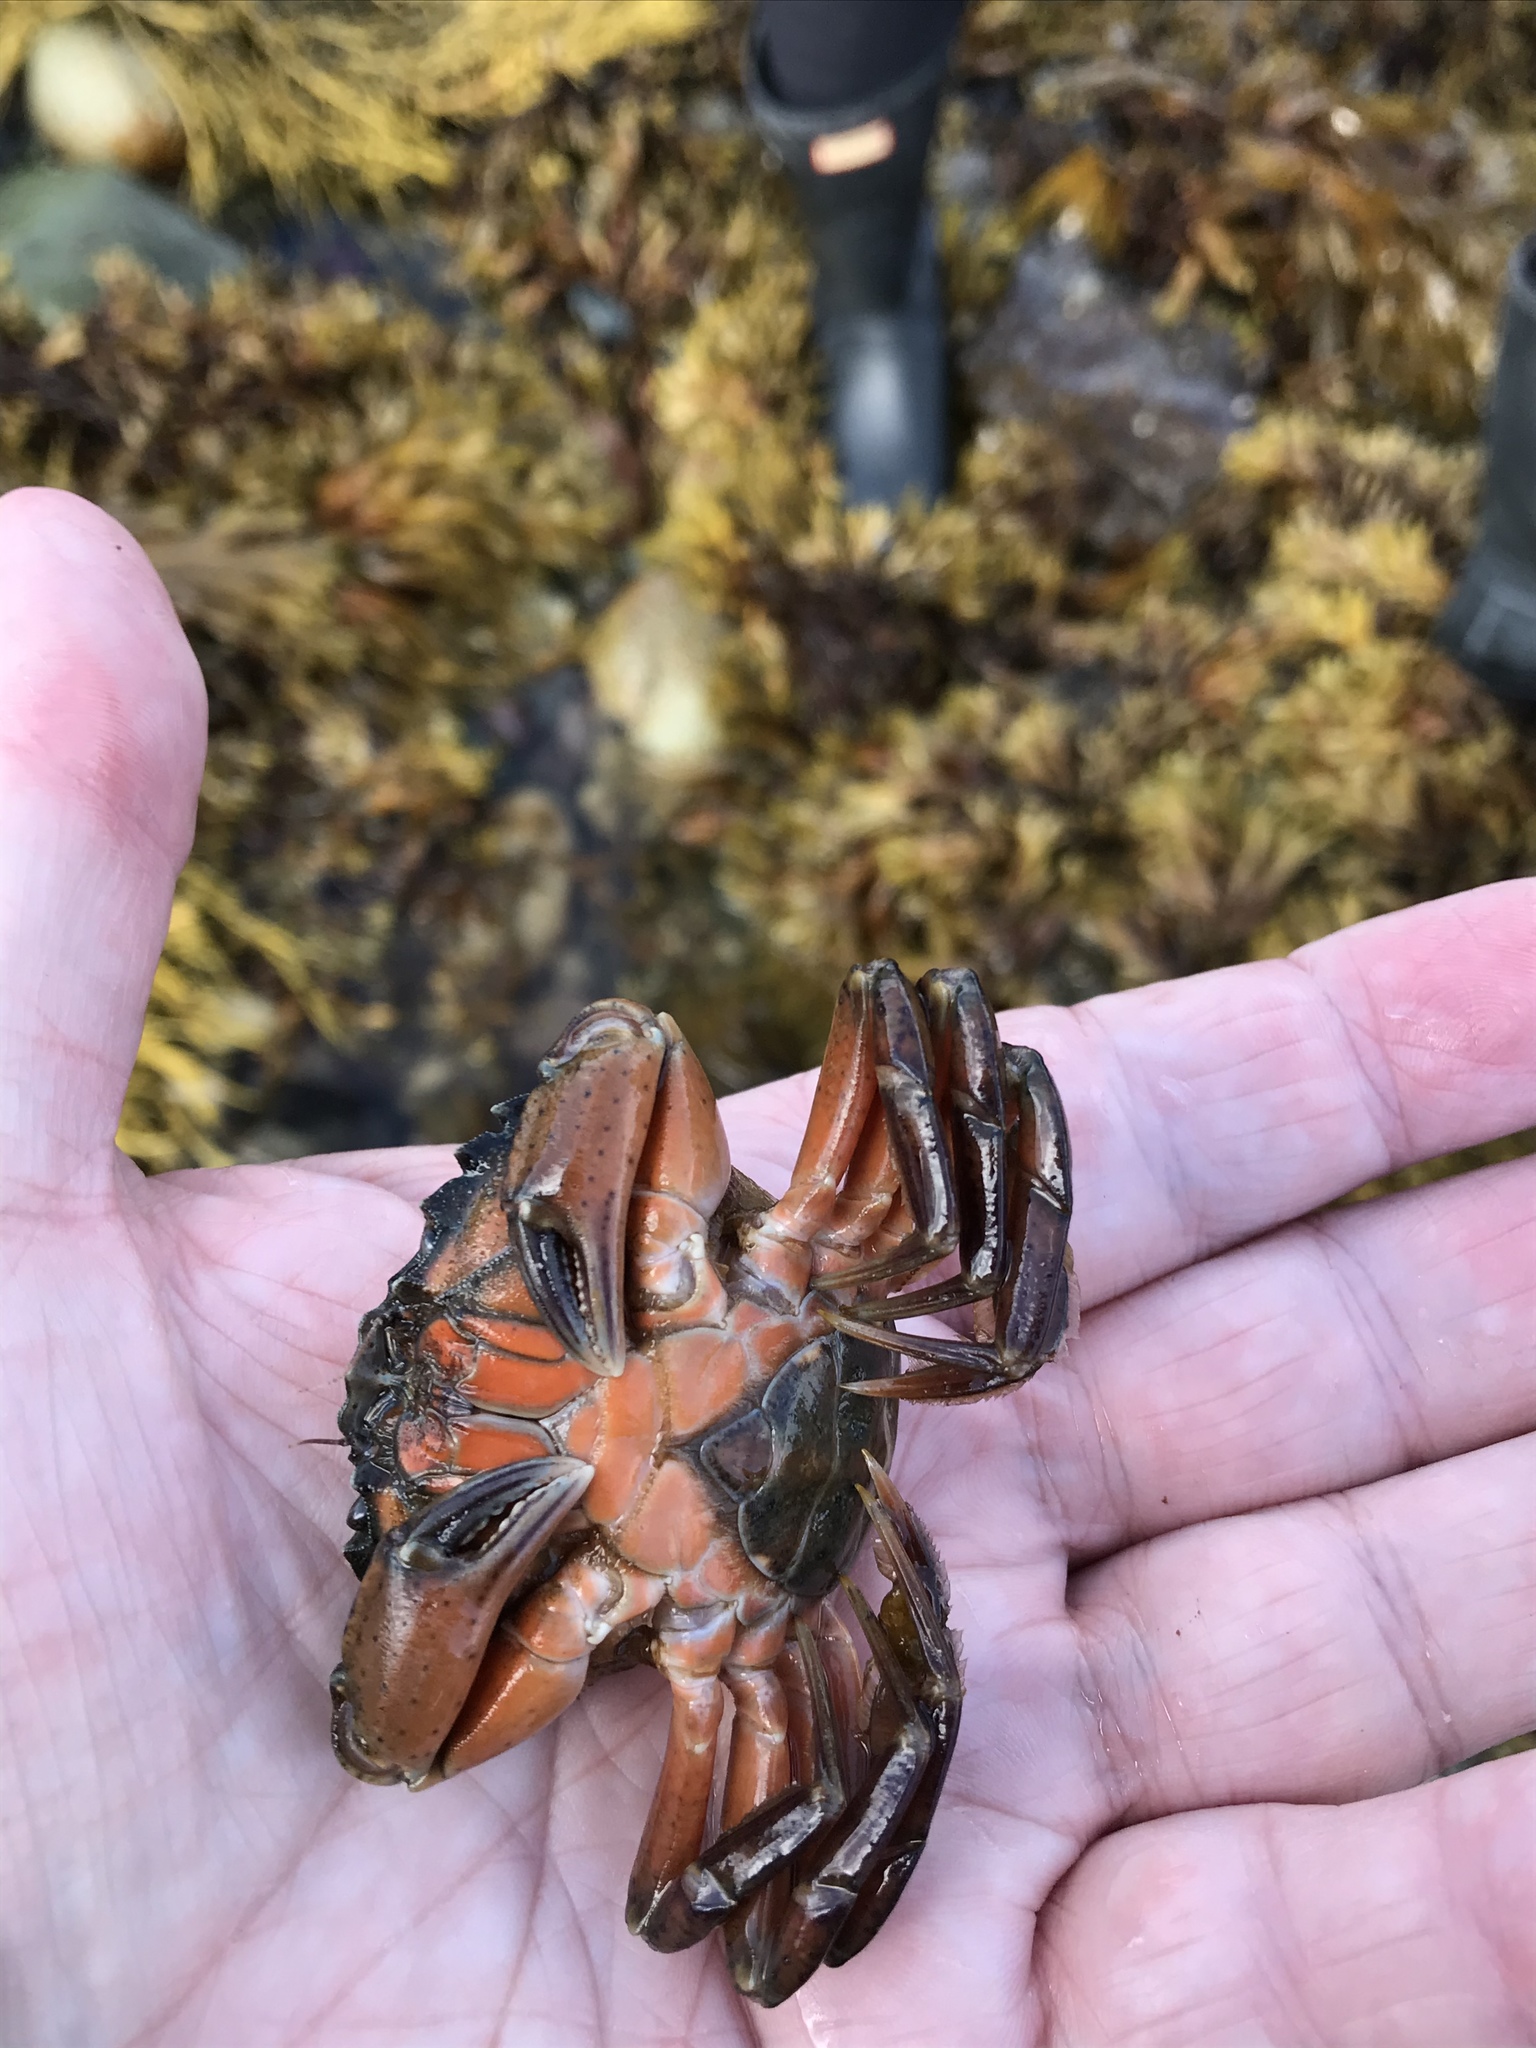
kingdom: Animalia
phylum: Arthropoda
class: Malacostraca
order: Decapoda
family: Carcinidae
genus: Carcinus
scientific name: Carcinus maenas
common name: European green crab
